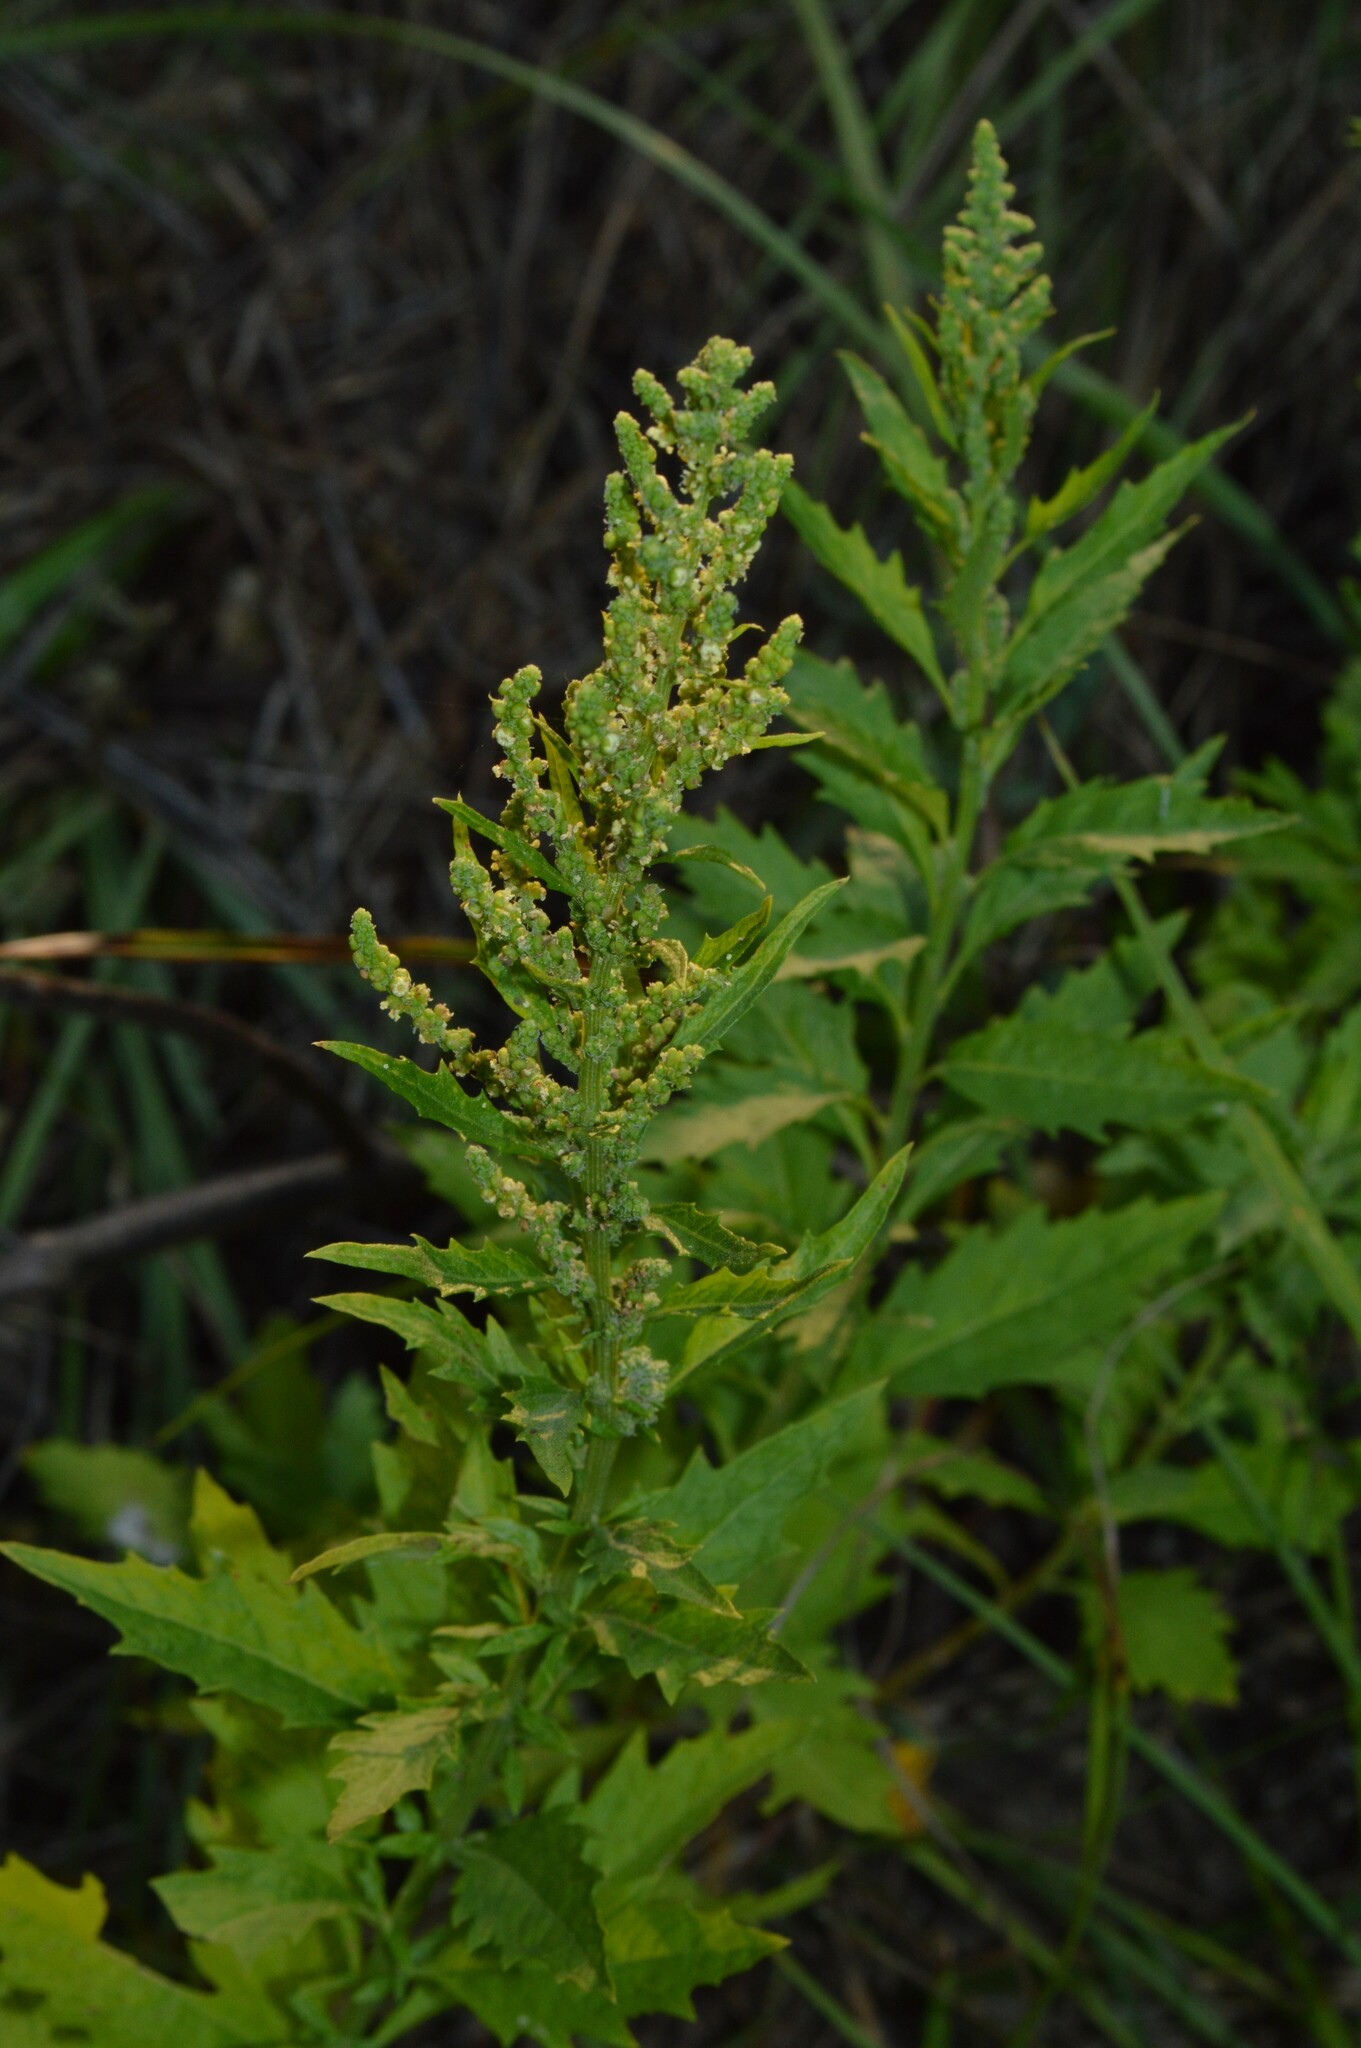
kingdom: Plantae
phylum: Tracheophyta
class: Magnoliopsida
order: Caryophyllales
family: Amaranthaceae
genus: Dysphania
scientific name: Dysphania ambrosioides
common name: Wormseed
